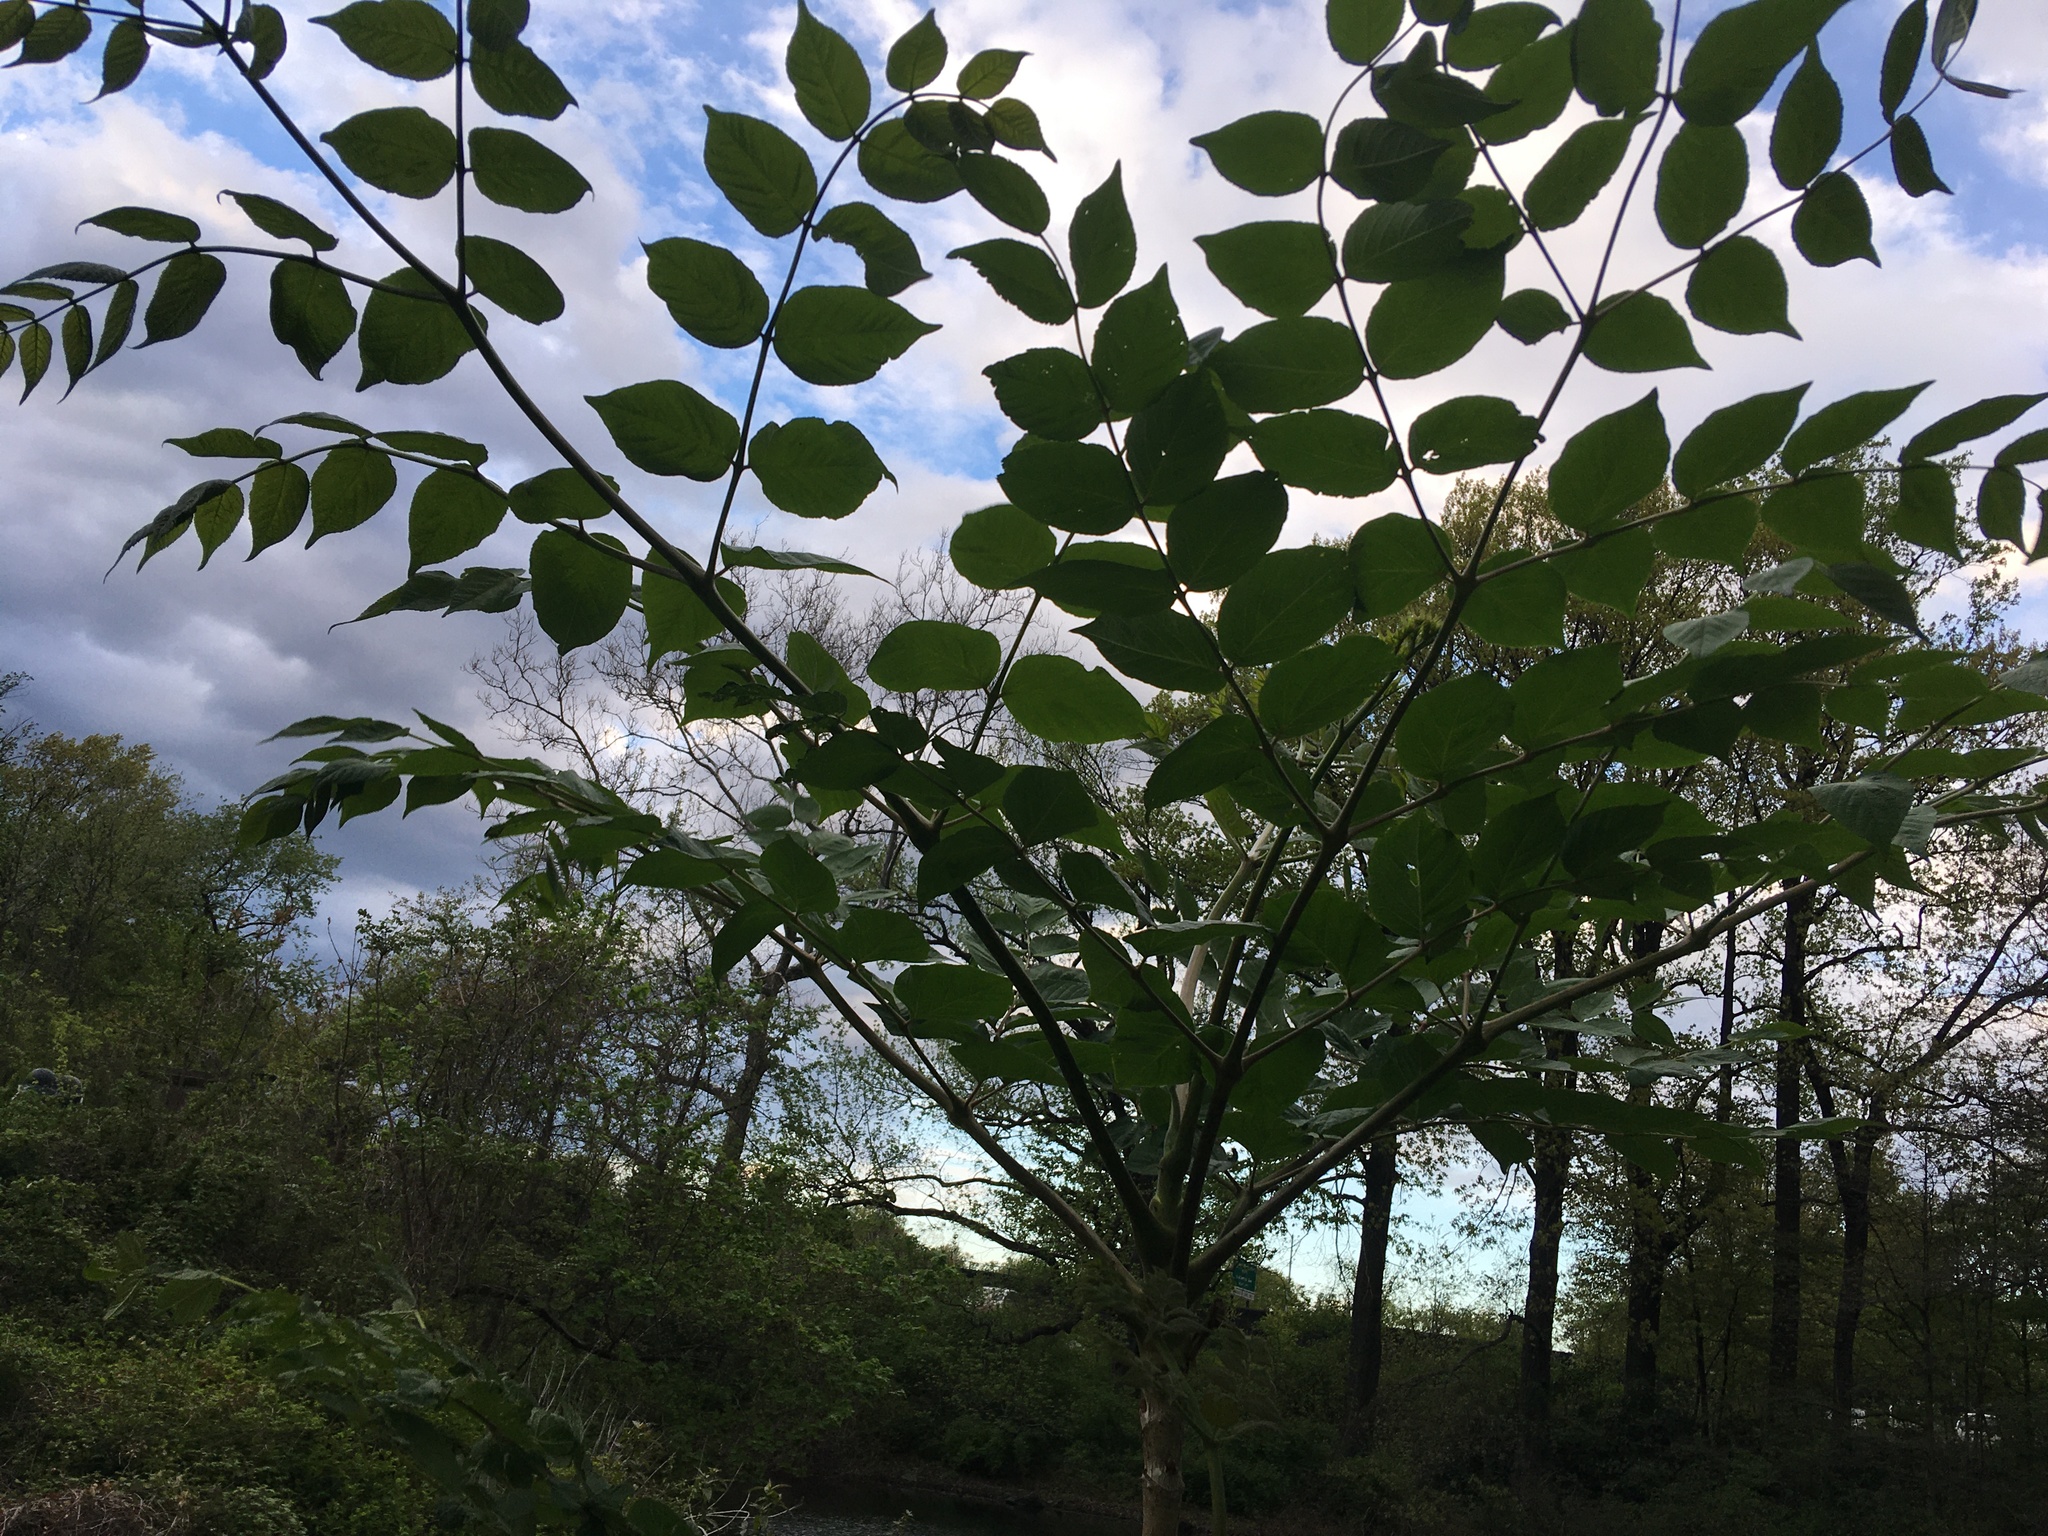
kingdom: Plantae
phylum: Tracheophyta
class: Magnoliopsida
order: Apiales
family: Araliaceae
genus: Aralia
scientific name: Aralia elata
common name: Japanese angelica-tree
